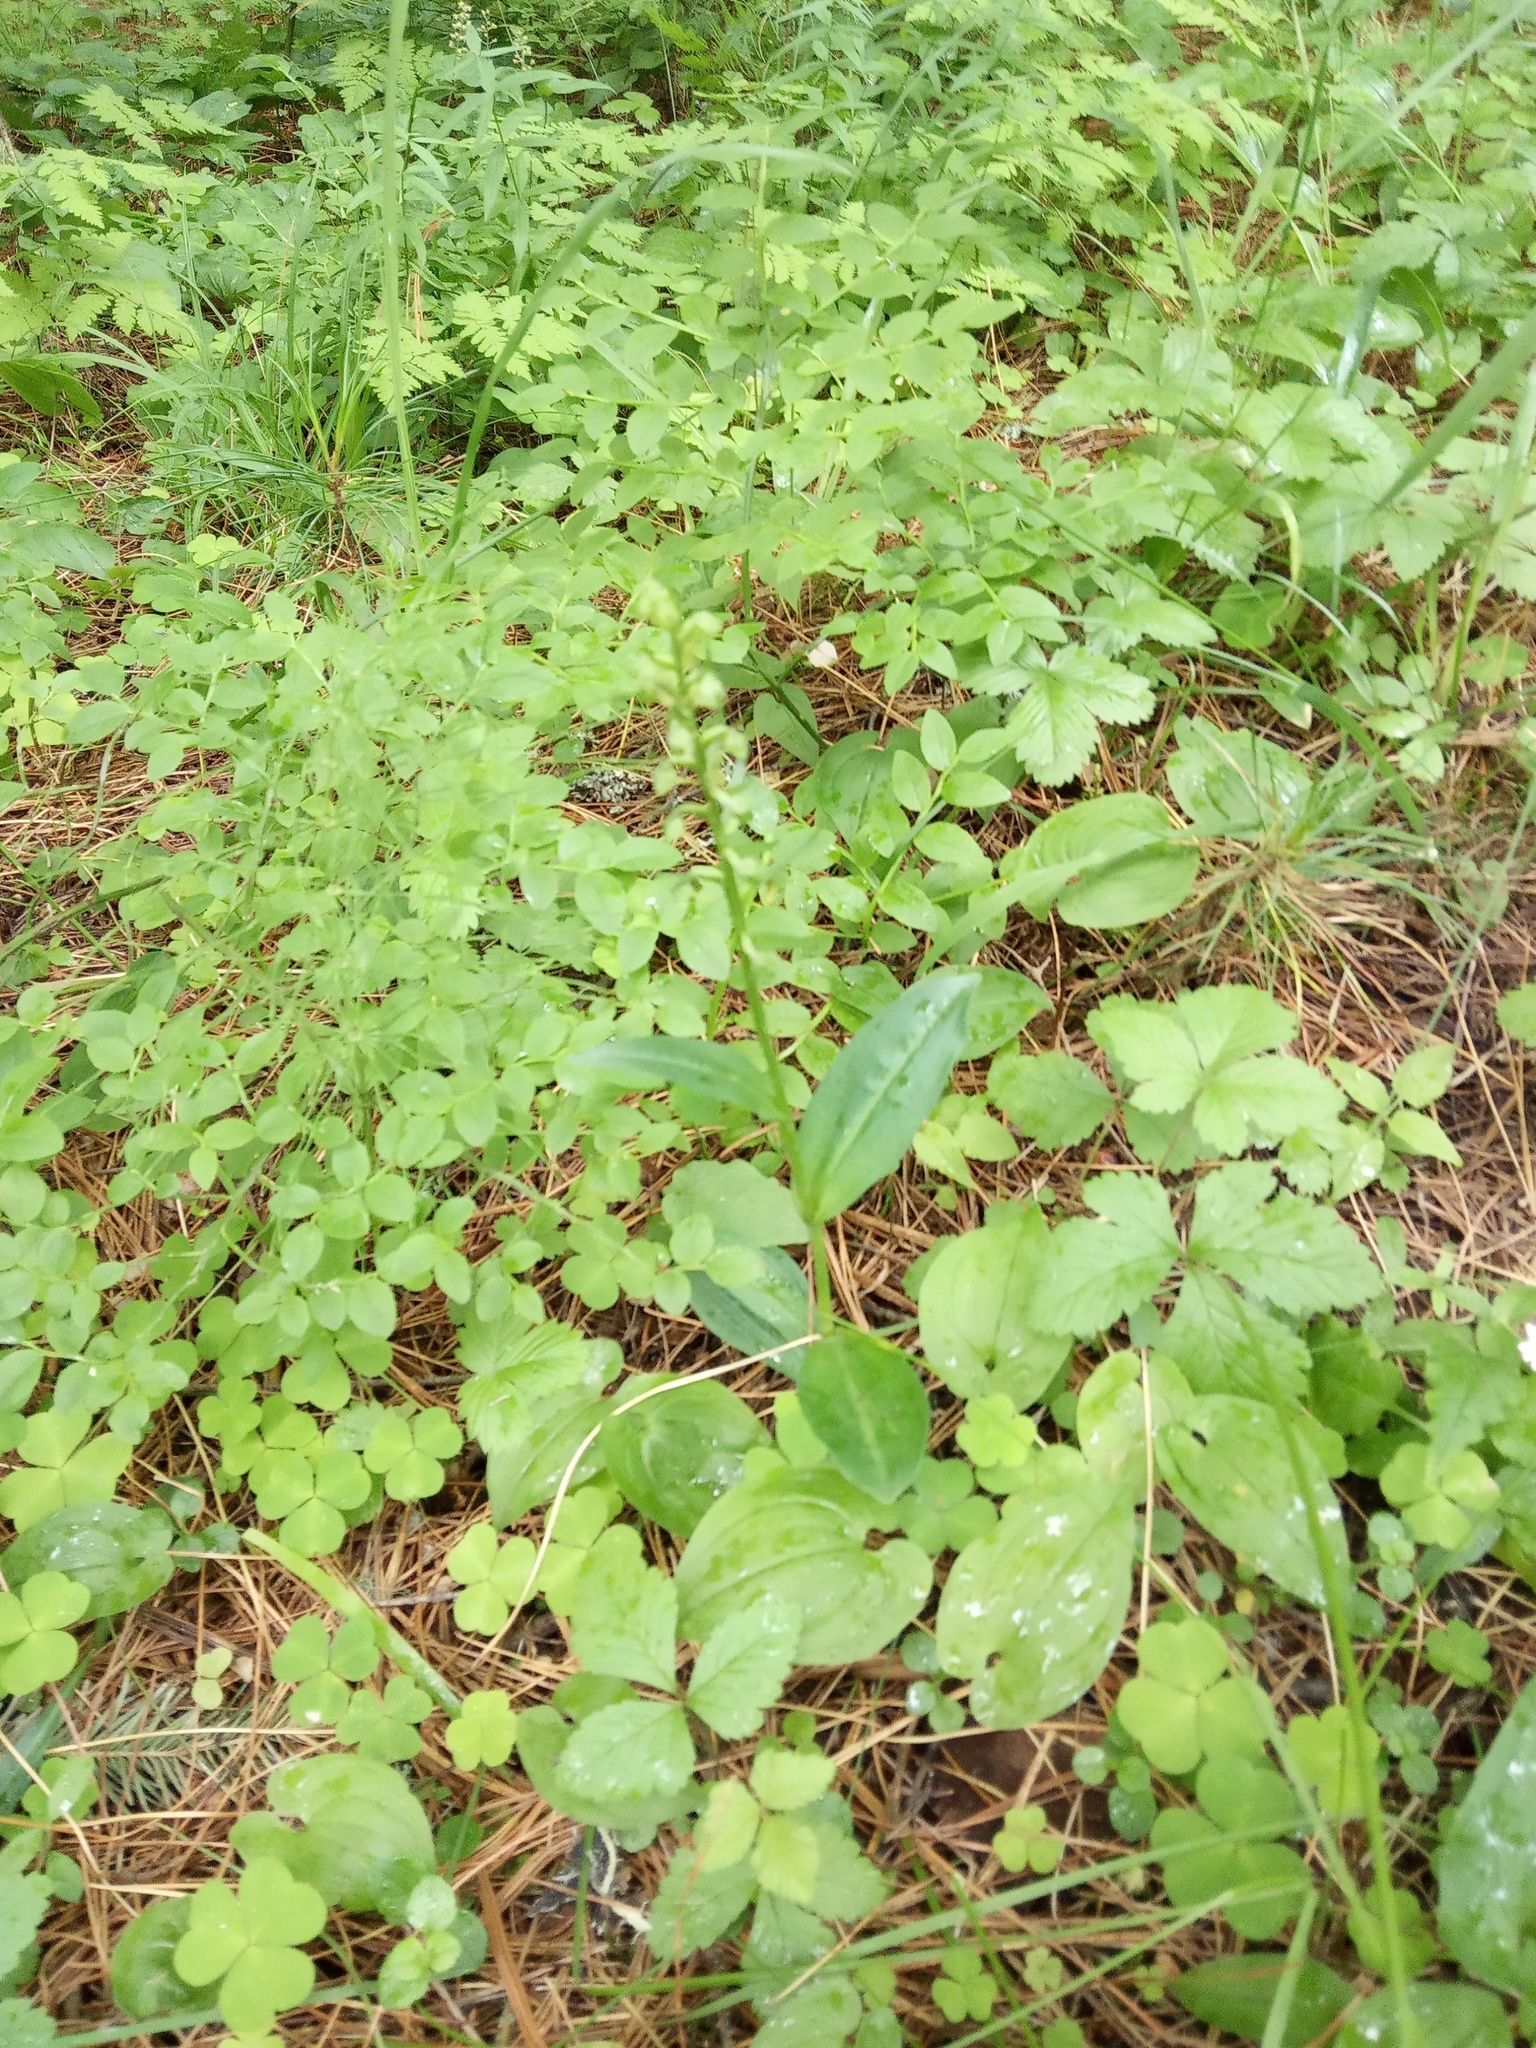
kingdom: Plantae
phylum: Tracheophyta
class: Liliopsida
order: Asparagales
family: Orchidaceae
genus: Dactylorhiza
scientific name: Dactylorhiza viridis
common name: Longbract frog orchid
